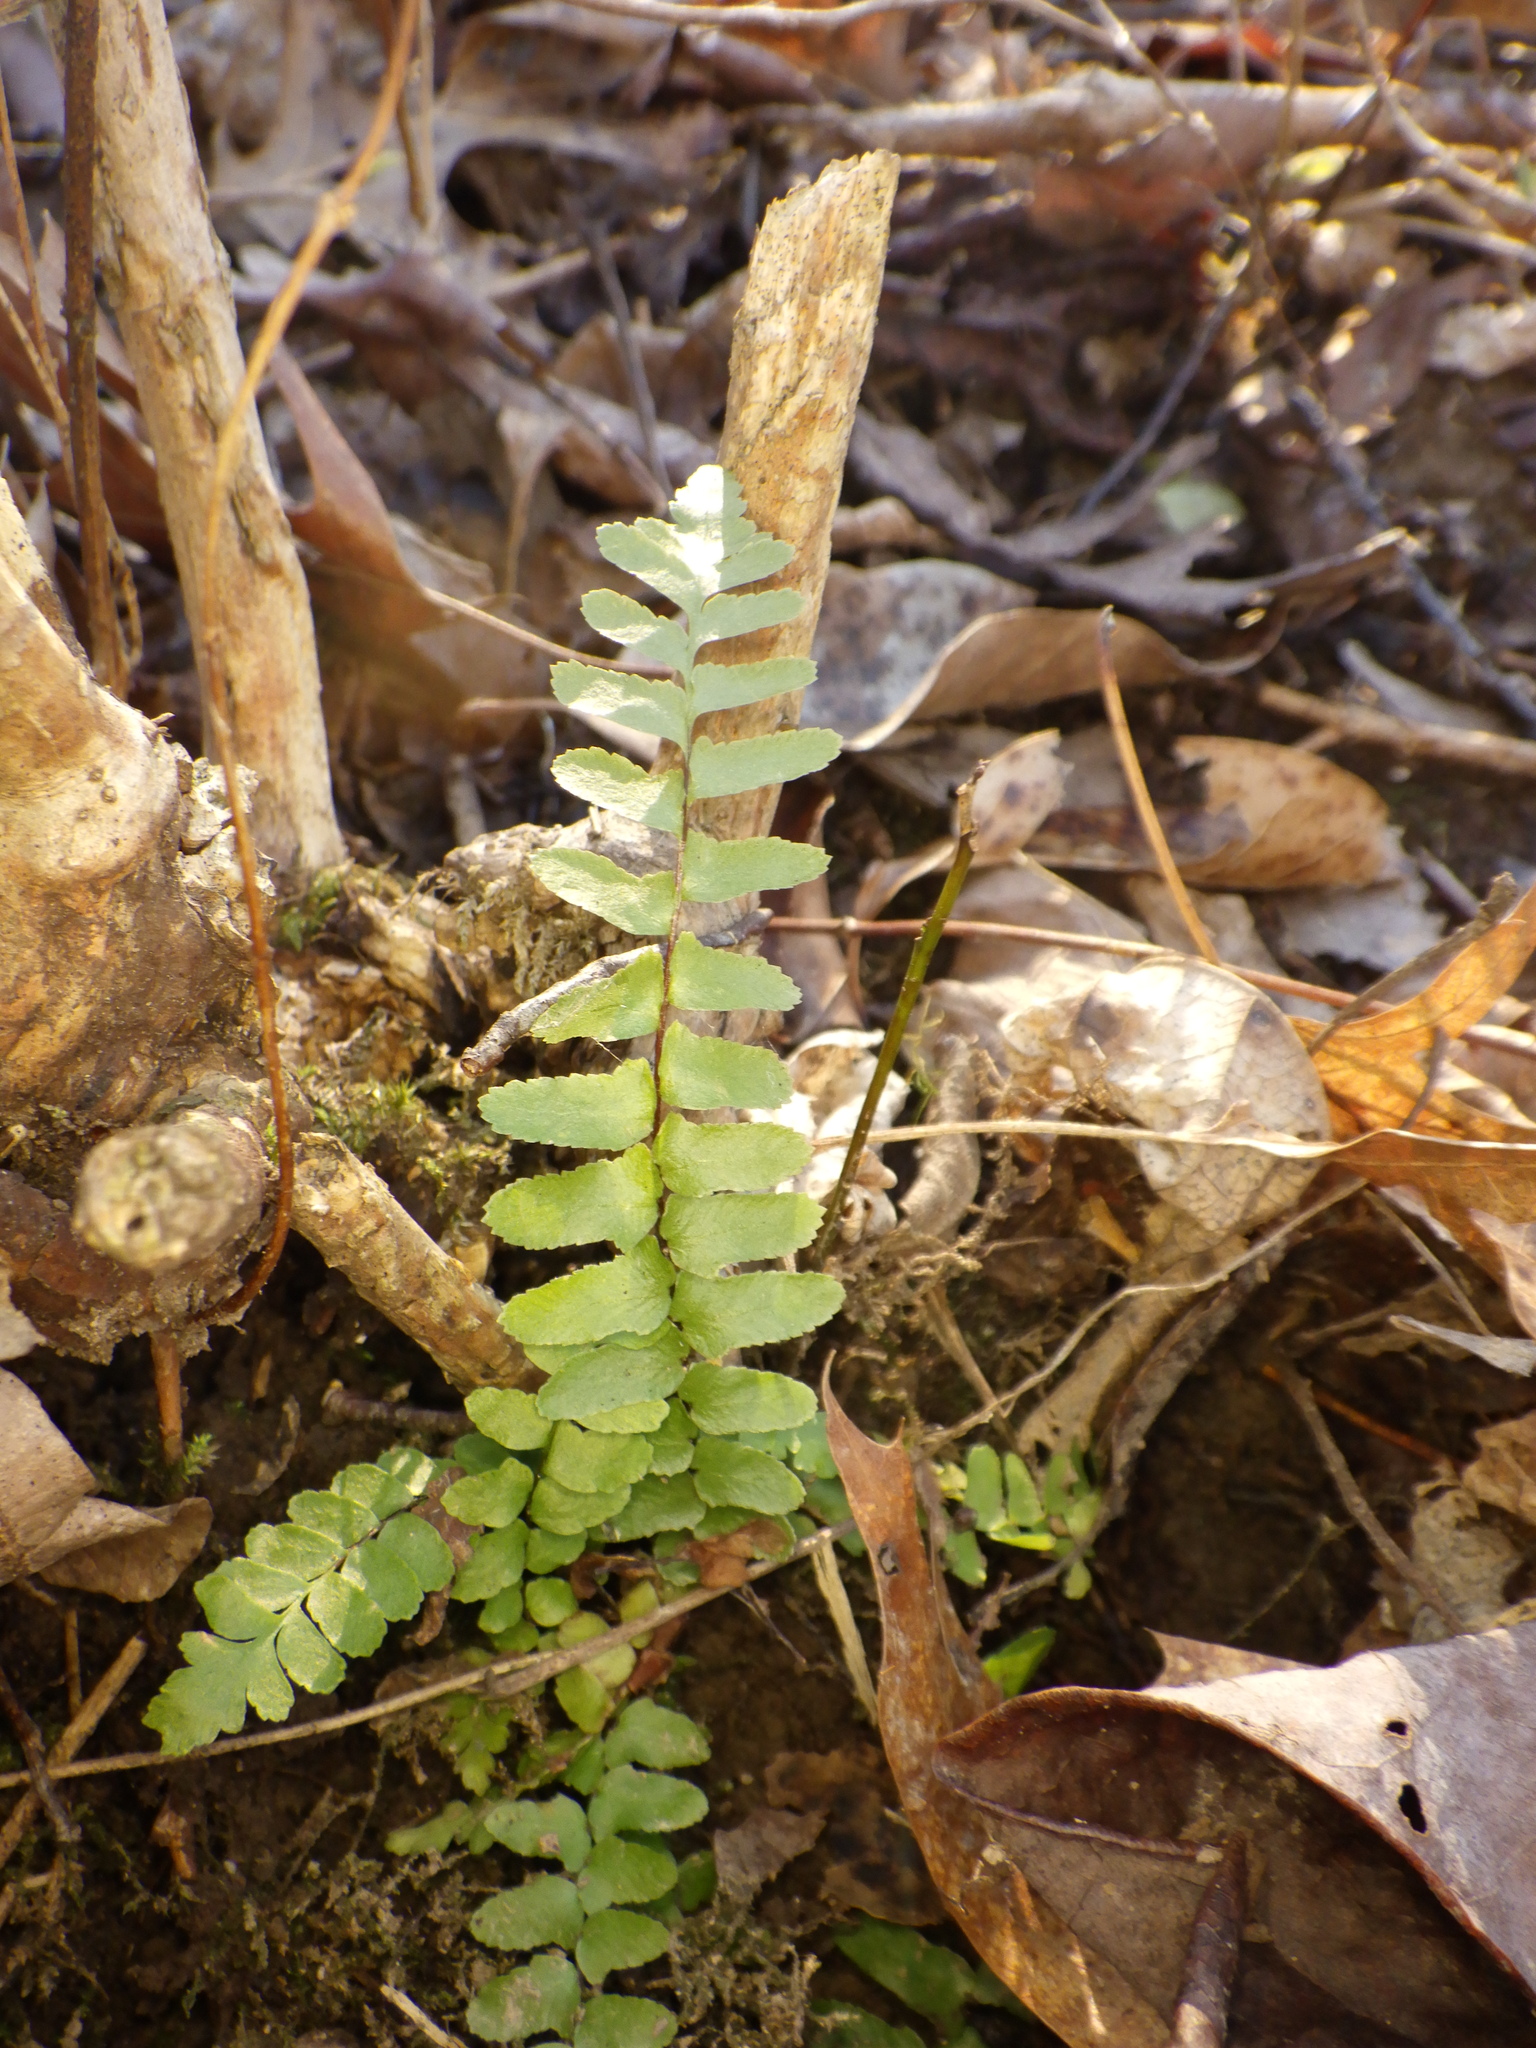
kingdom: Plantae
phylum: Tracheophyta
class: Polypodiopsida
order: Polypodiales
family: Aspleniaceae
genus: Asplenium
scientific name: Asplenium platyneuron
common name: Ebony spleenwort
